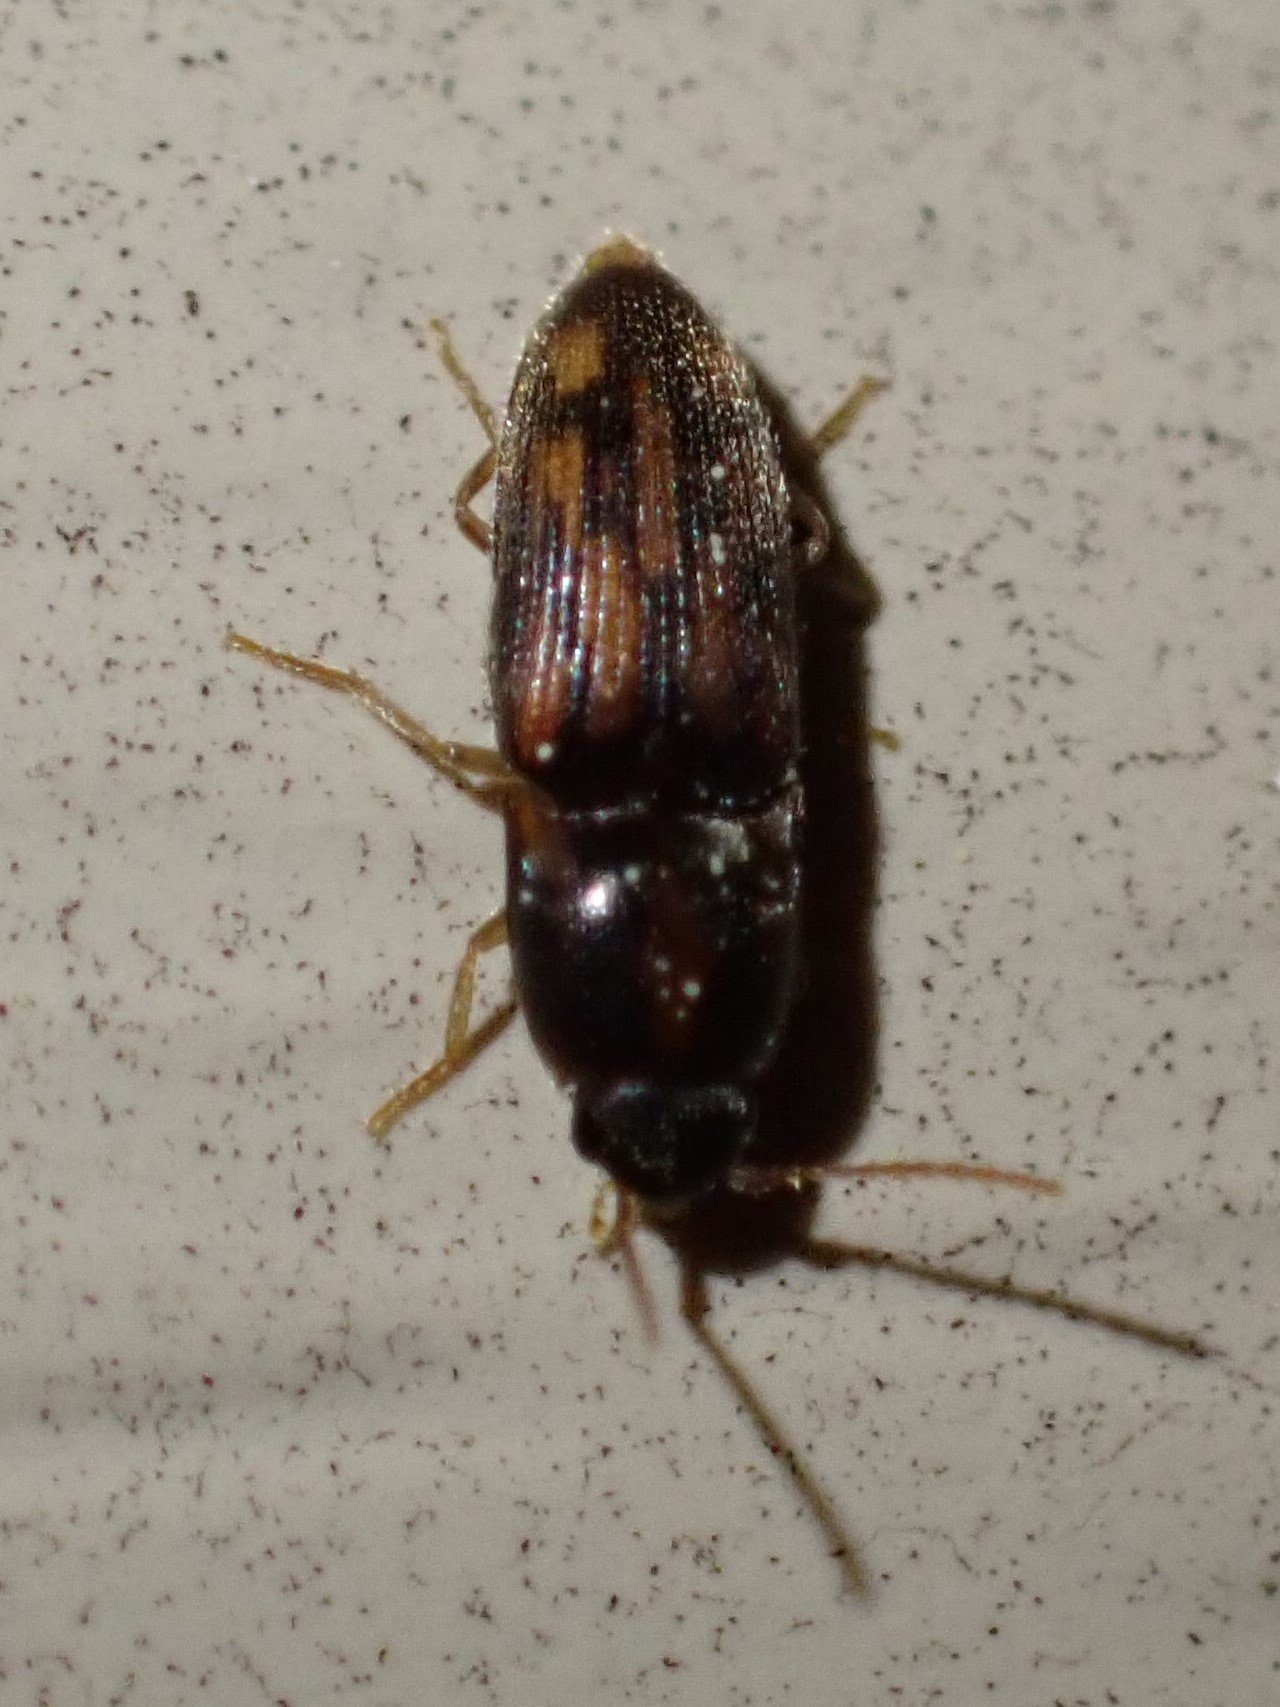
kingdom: Animalia
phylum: Arthropoda
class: Insecta
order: Coleoptera
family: Elateridae
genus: Monocrepidius
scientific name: Monocrepidius bellus
